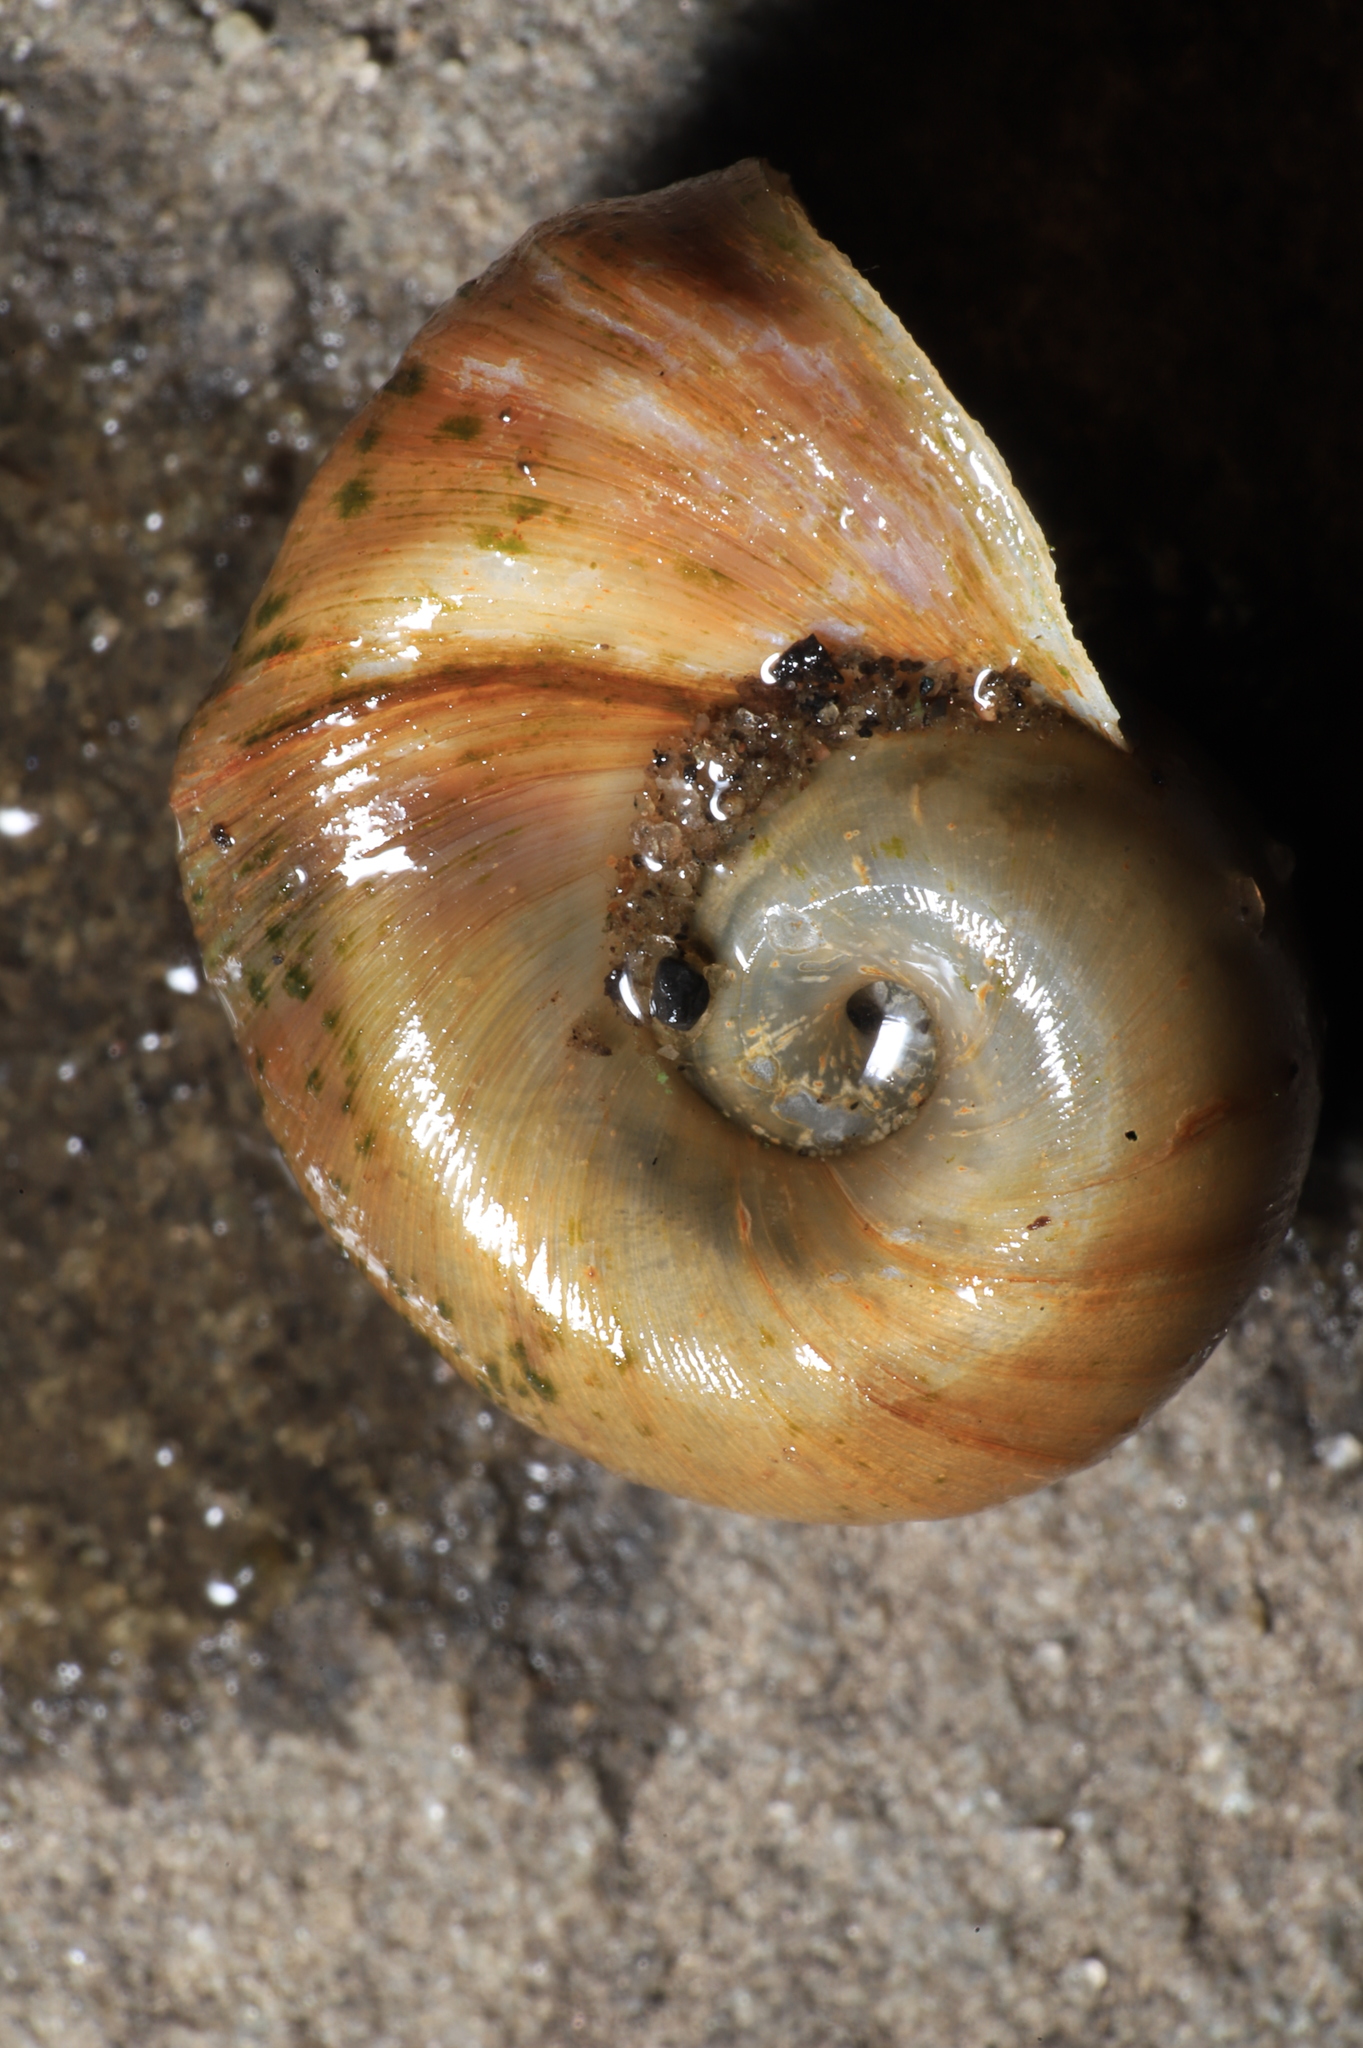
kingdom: Animalia
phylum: Mollusca
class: Gastropoda
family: Planorbidae
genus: Planorbella
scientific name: Planorbella trivolvis
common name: Marsh rams-horn
